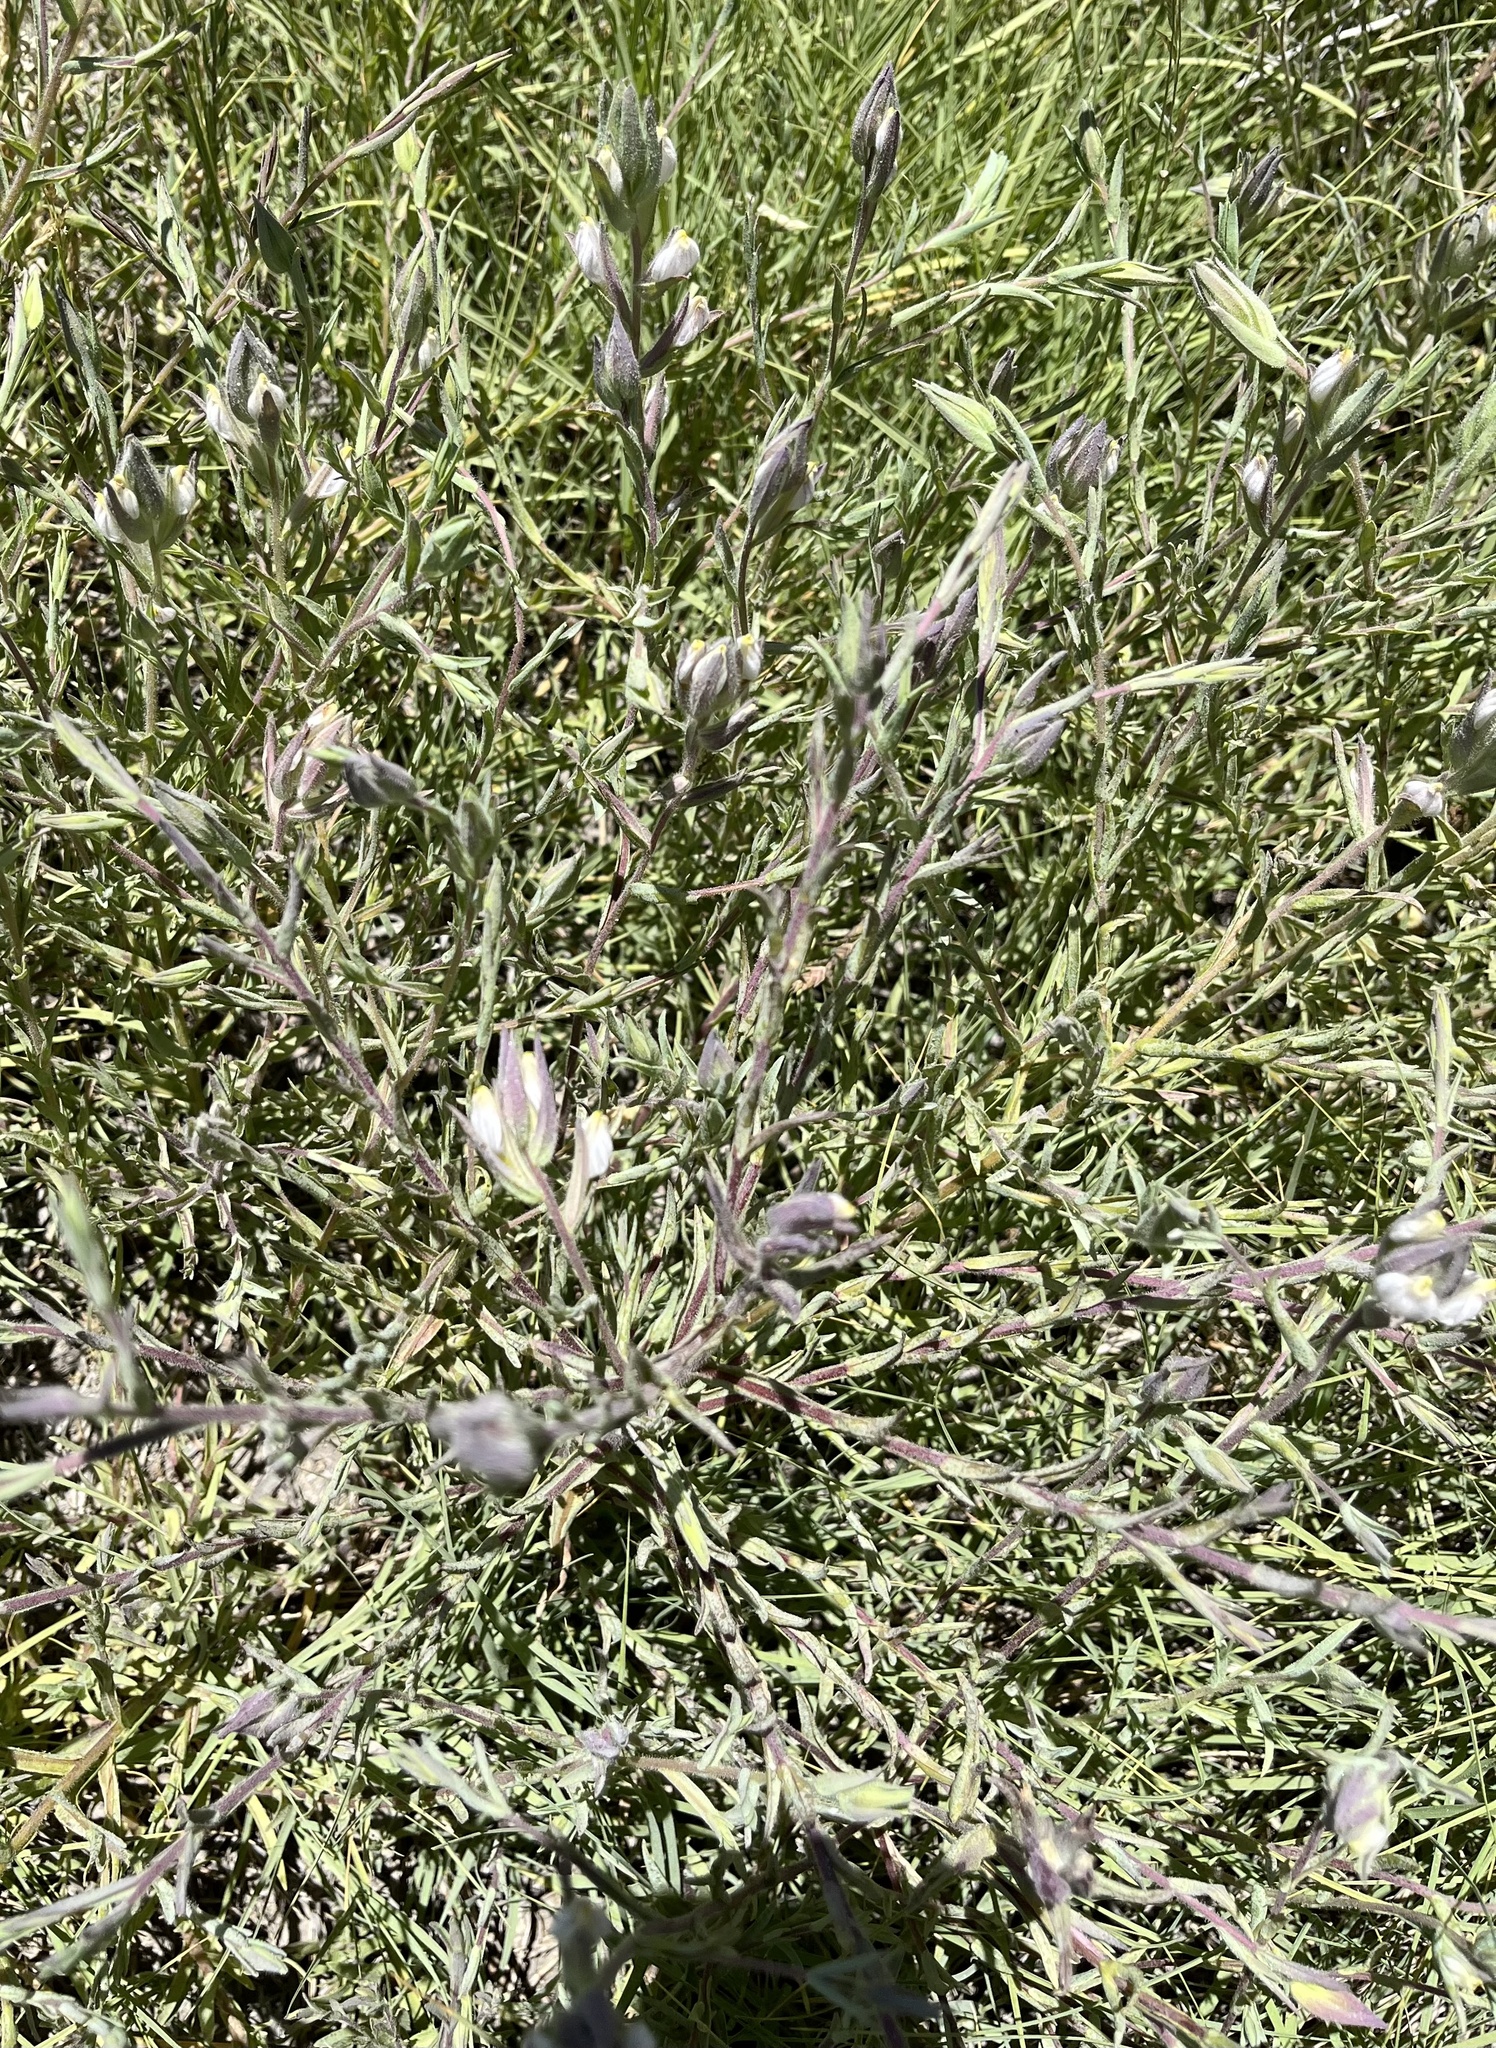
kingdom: Plantae
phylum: Tracheophyta
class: Magnoliopsida
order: Lamiales
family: Orobanchaceae
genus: Chloropyron
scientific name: Chloropyron maritimum
